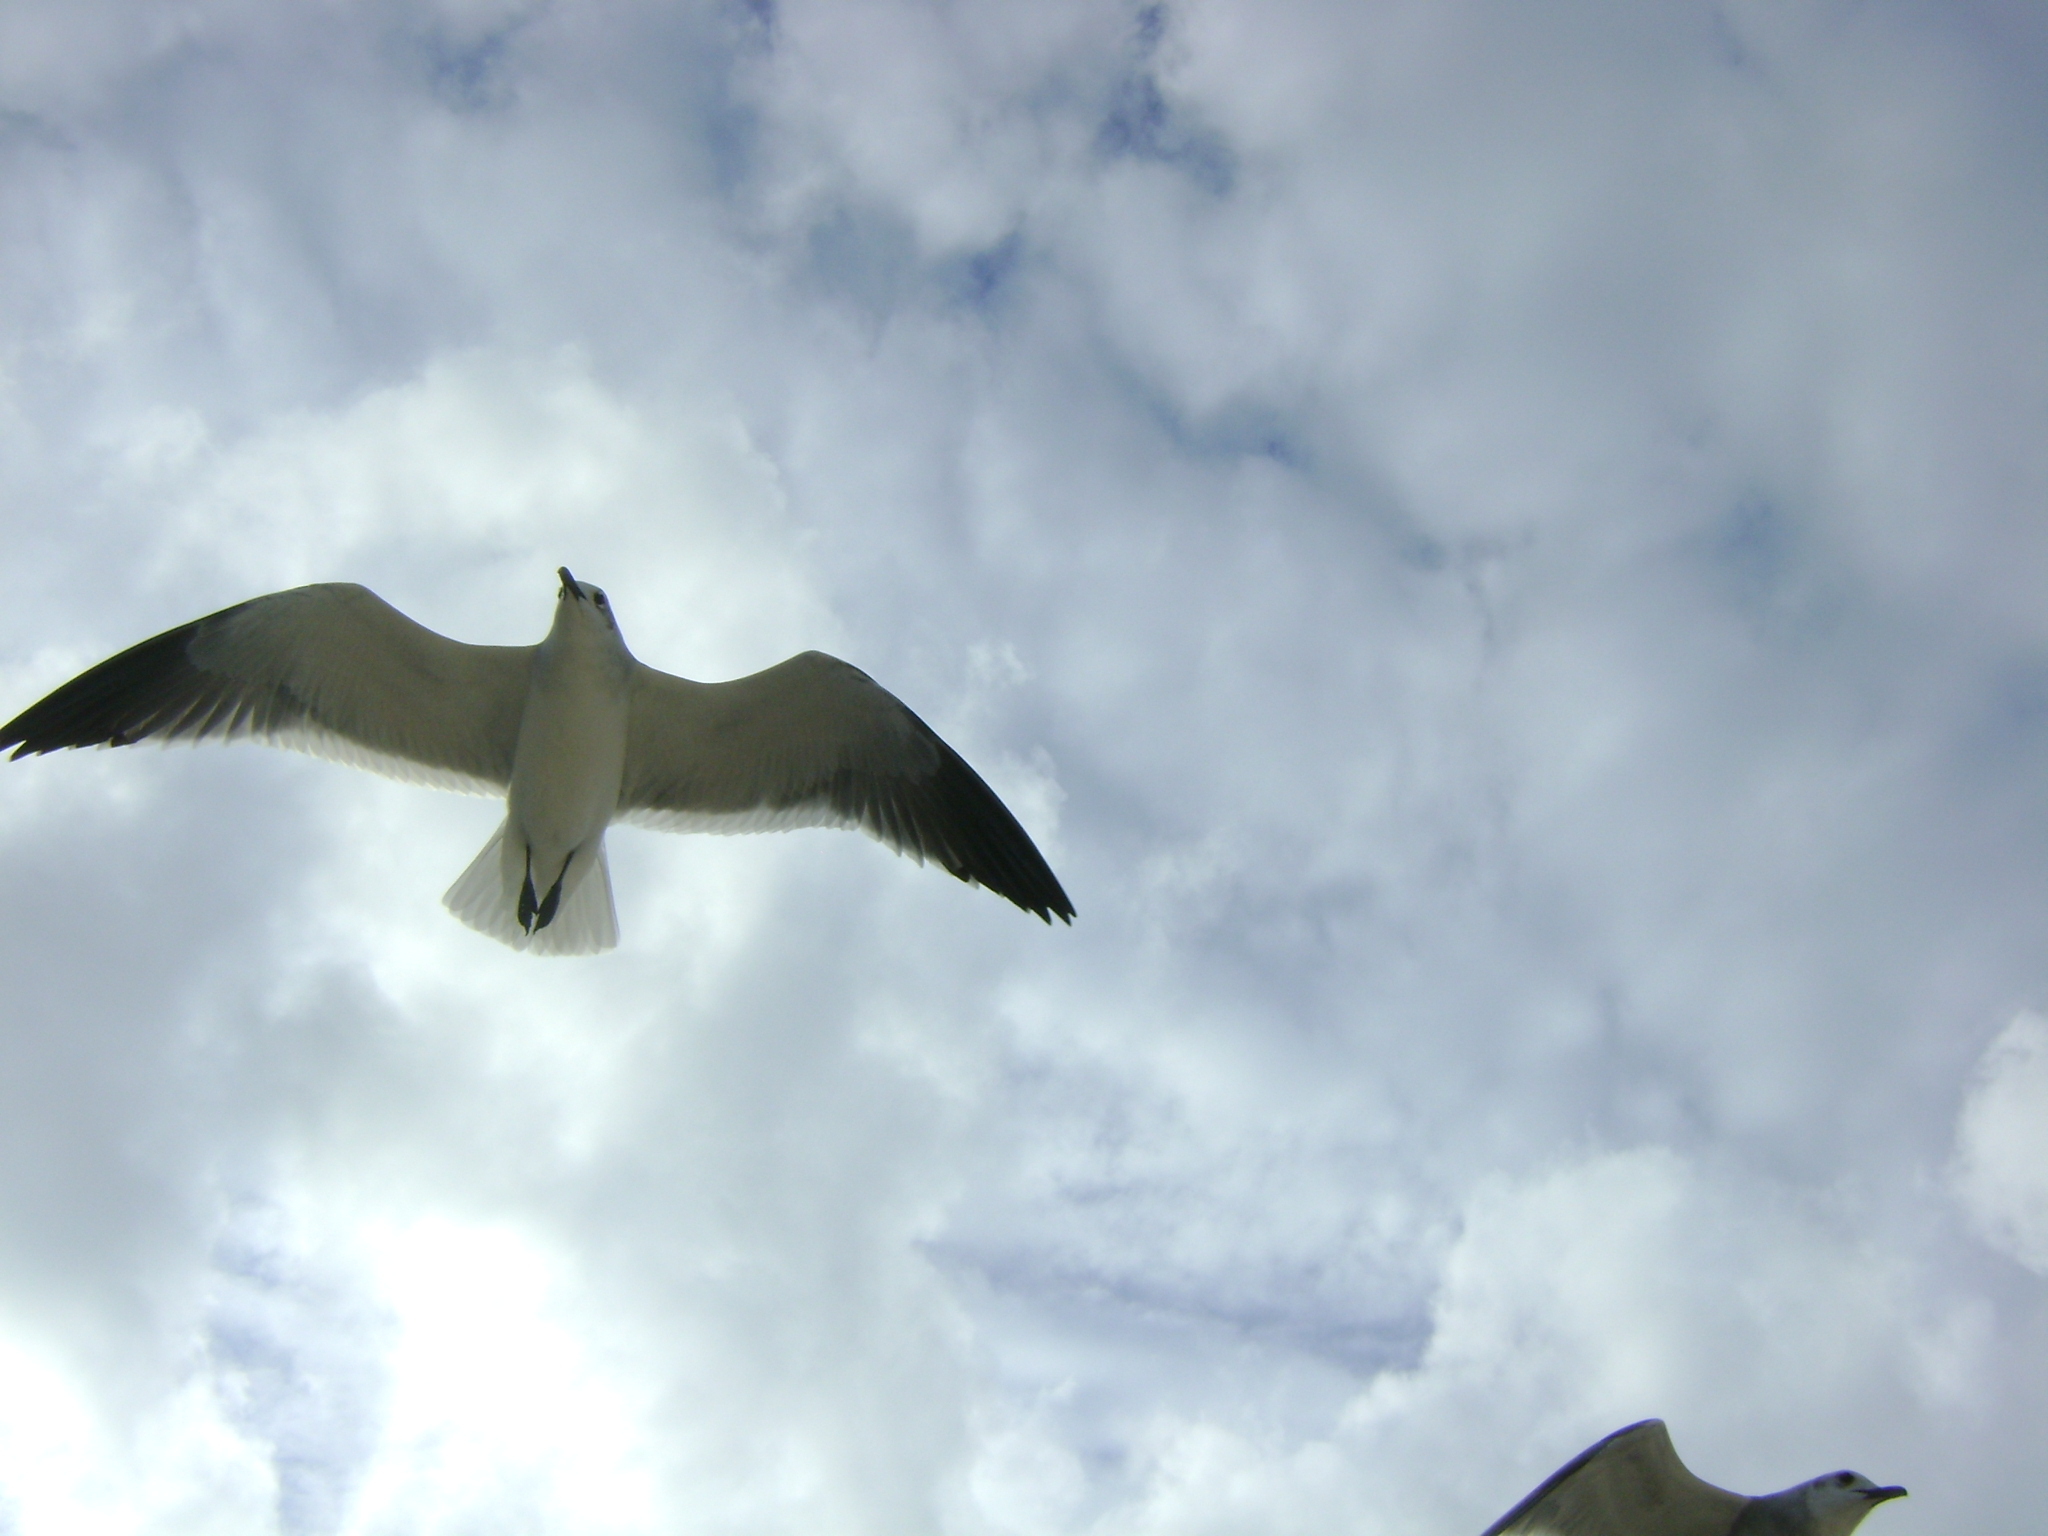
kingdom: Animalia
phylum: Chordata
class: Aves
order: Charadriiformes
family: Laridae
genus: Leucophaeus
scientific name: Leucophaeus atricilla
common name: Laughing gull
